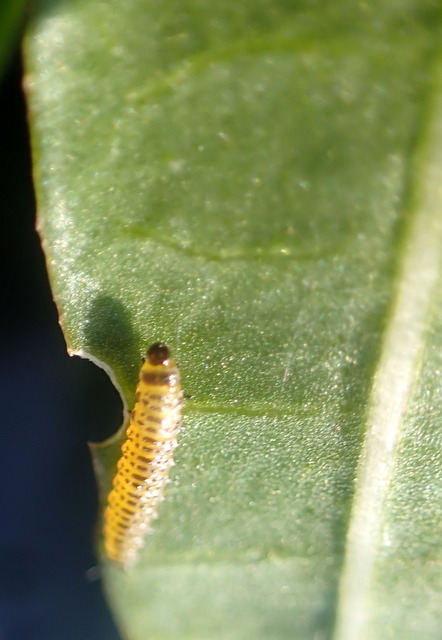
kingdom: Animalia
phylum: Arthropoda
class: Insecta
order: Coleoptera
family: Chrysomelidae
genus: Agasicles
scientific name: Agasicles hygrophila
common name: Alligatorweed flea beetle
